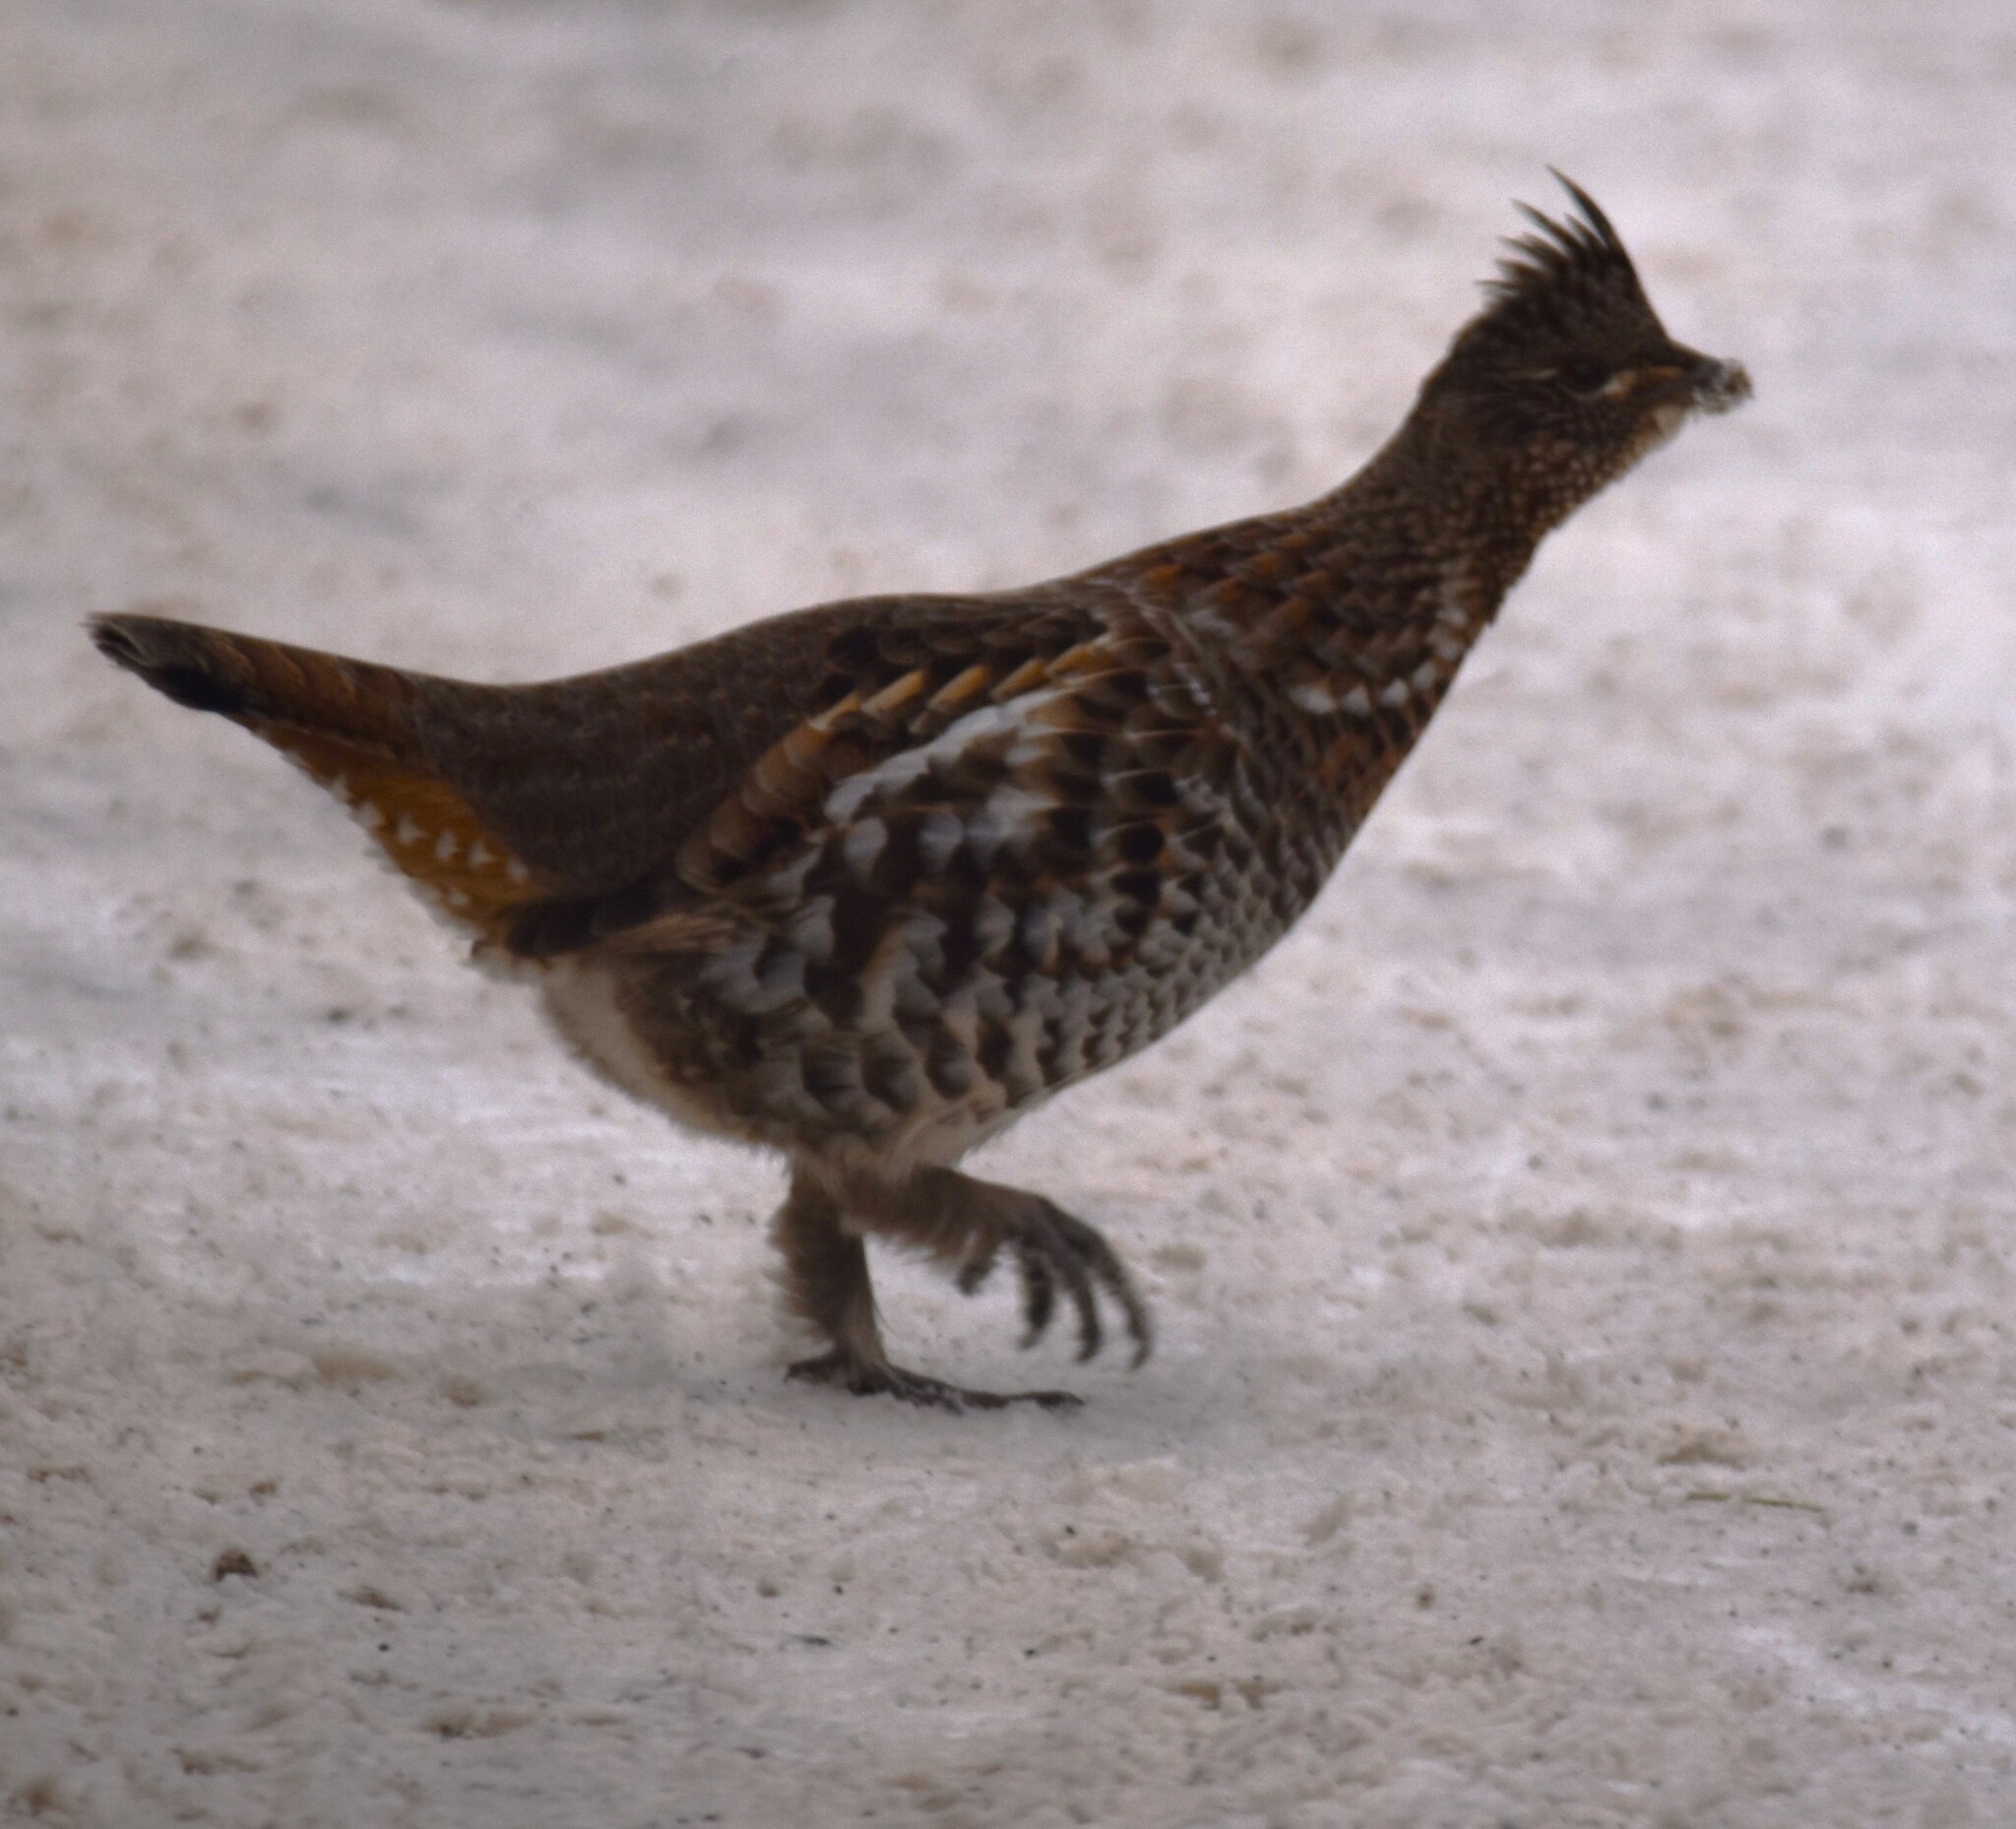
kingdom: Animalia
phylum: Chordata
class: Aves
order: Galliformes
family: Phasianidae
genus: Bonasa
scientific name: Bonasa umbellus
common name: Ruffed grouse
